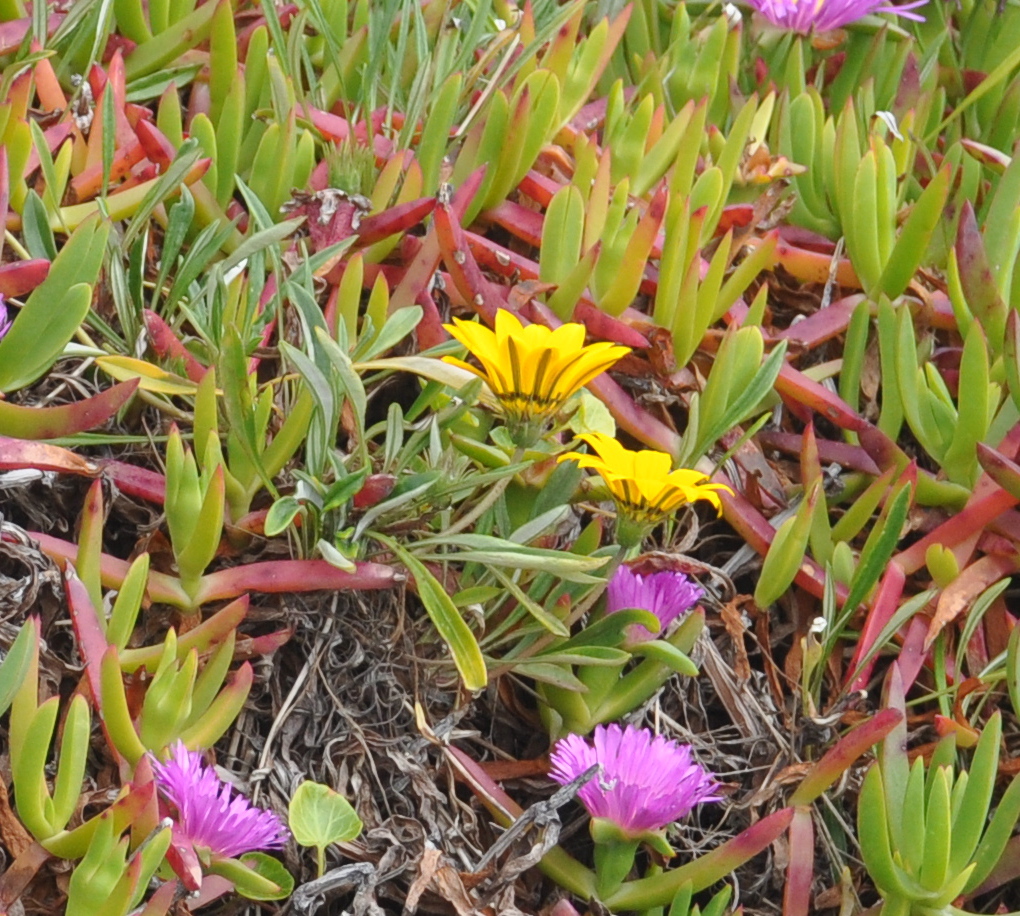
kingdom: Plantae
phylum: Tracheophyta
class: Magnoliopsida
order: Asterales
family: Asteraceae
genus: Gazania
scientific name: Gazania rigens
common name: Treasureflower
